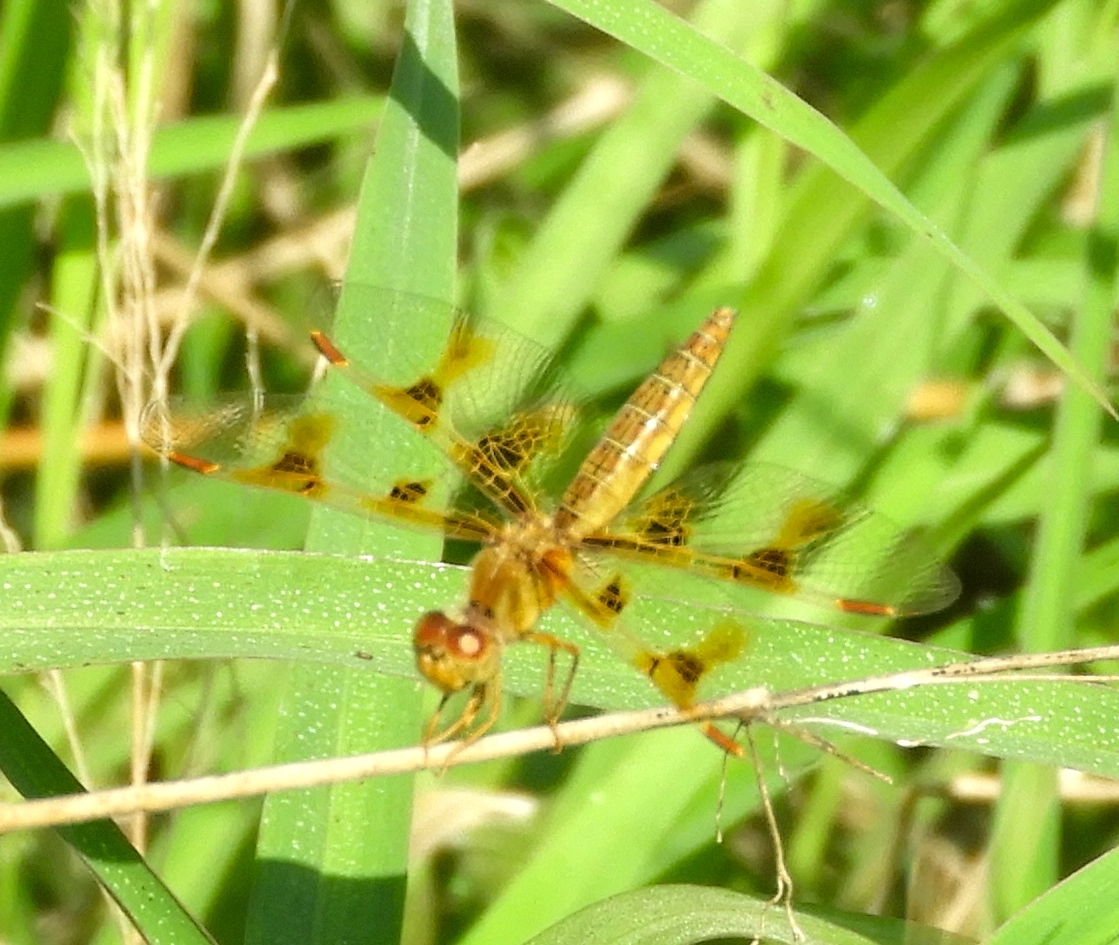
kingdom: Animalia
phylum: Arthropoda
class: Insecta
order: Odonata
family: Libellulidae
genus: Perithemis
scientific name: Perithemis tenera
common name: Eastern amberwing
